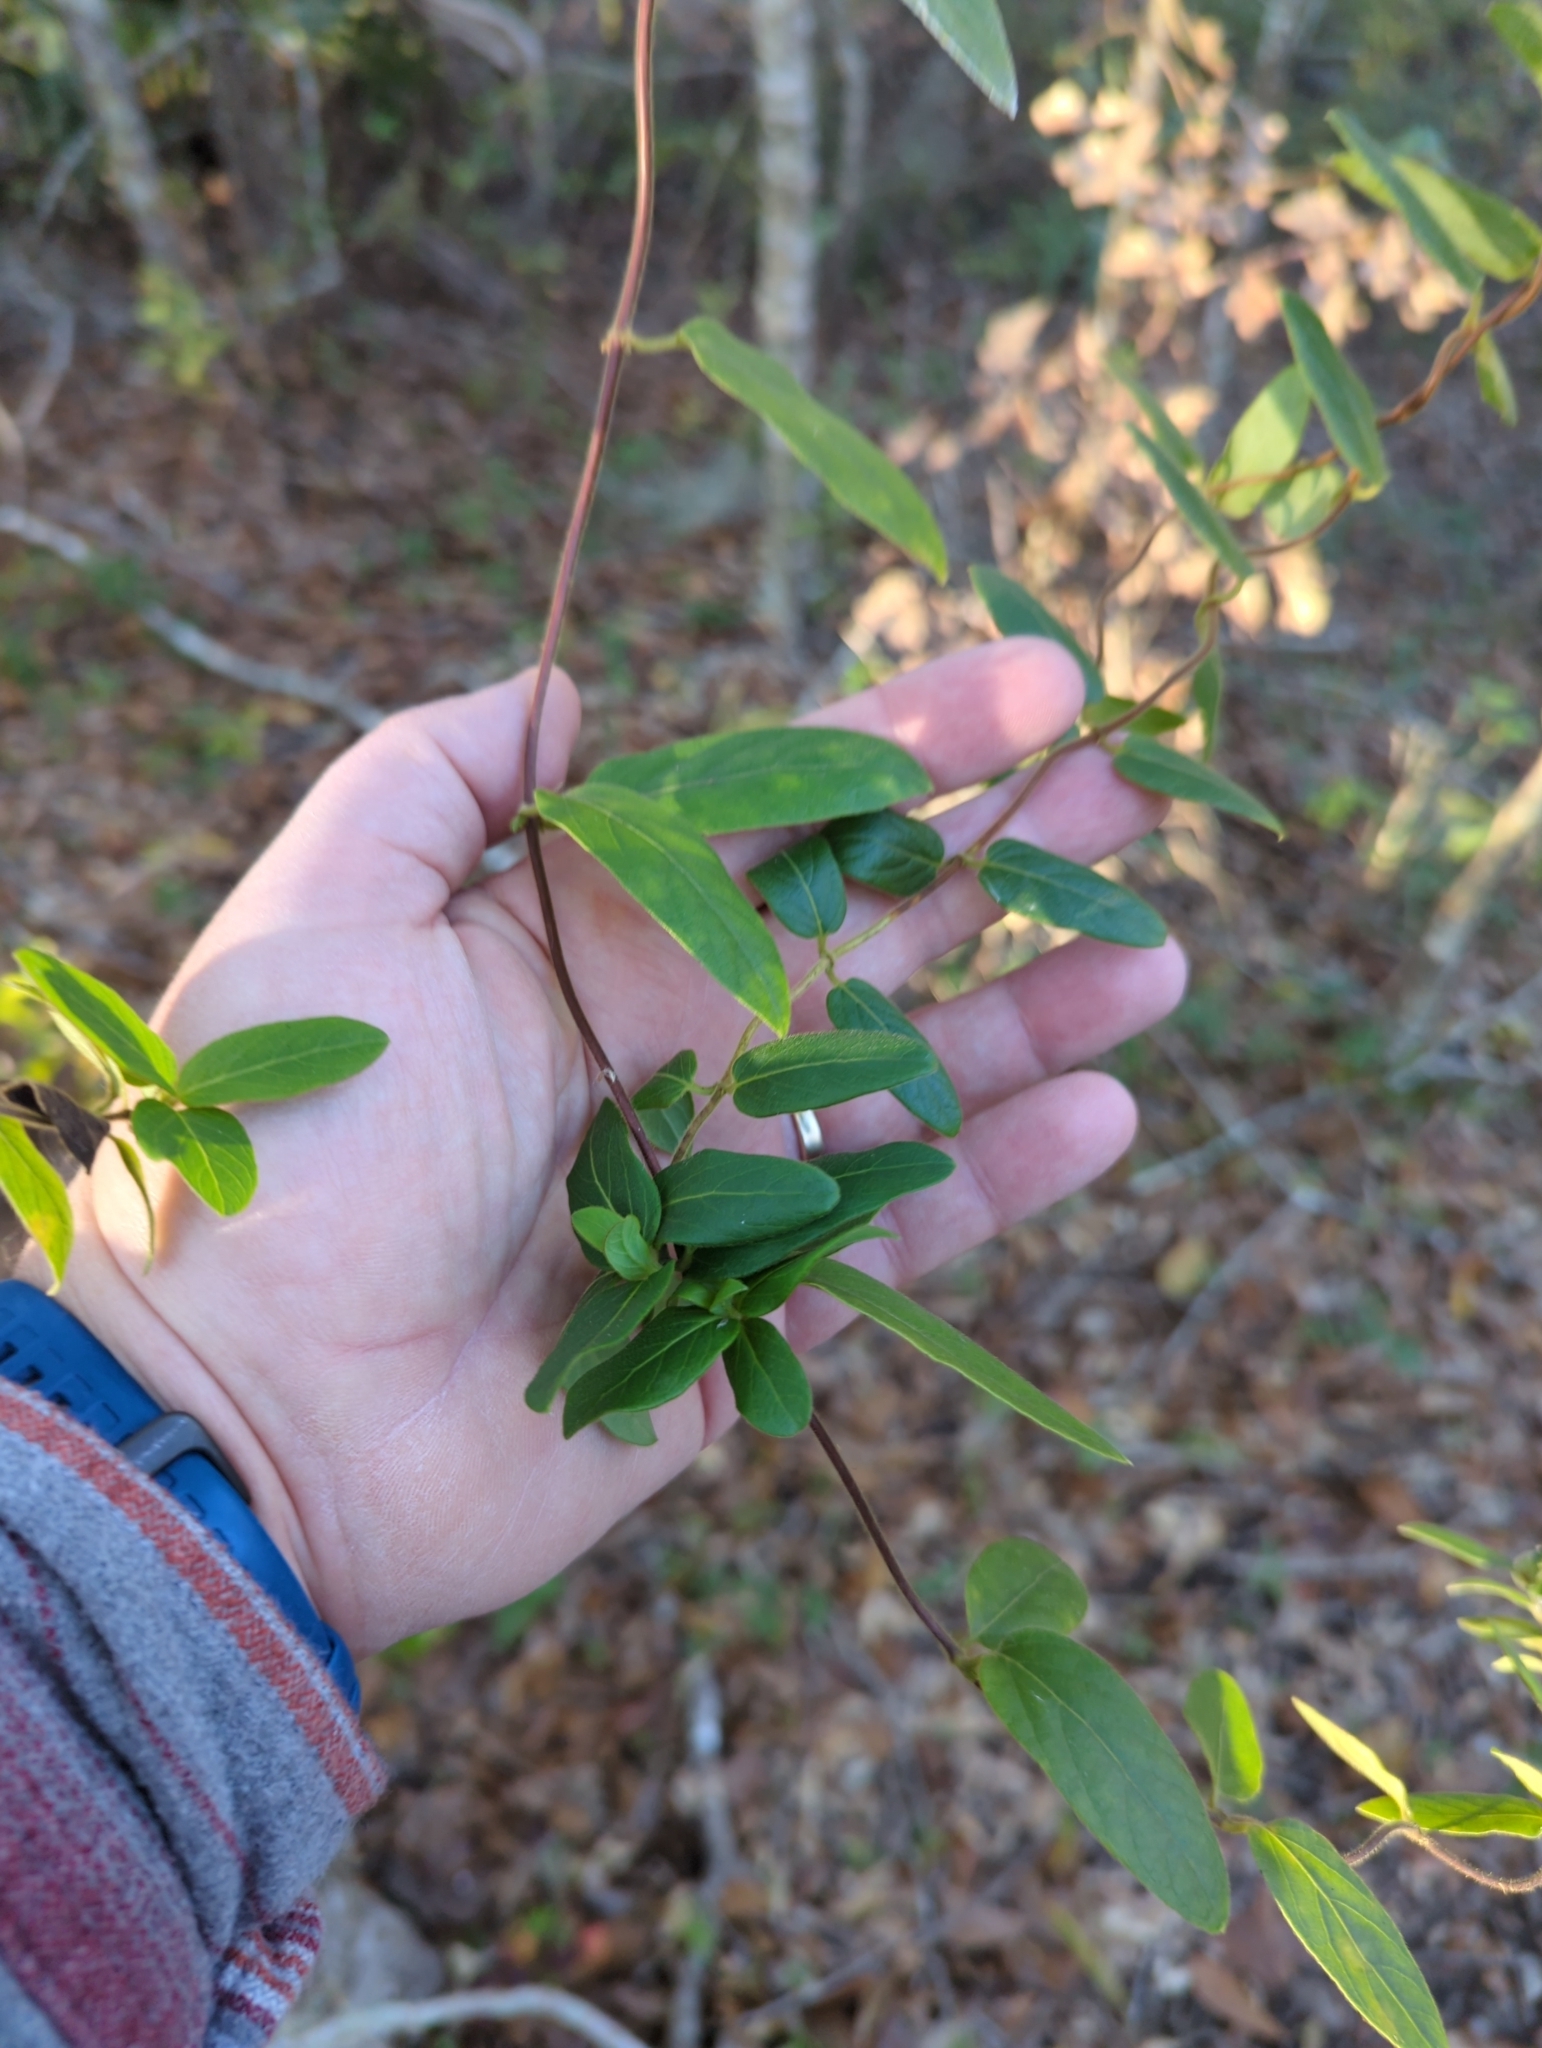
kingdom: Plantae
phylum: Tracheophyta
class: Magnoliopsida
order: Dipsacales
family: Caprifoliaceae
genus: Lonicera
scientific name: Lonicera japonica
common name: Japanese honeysuckle
